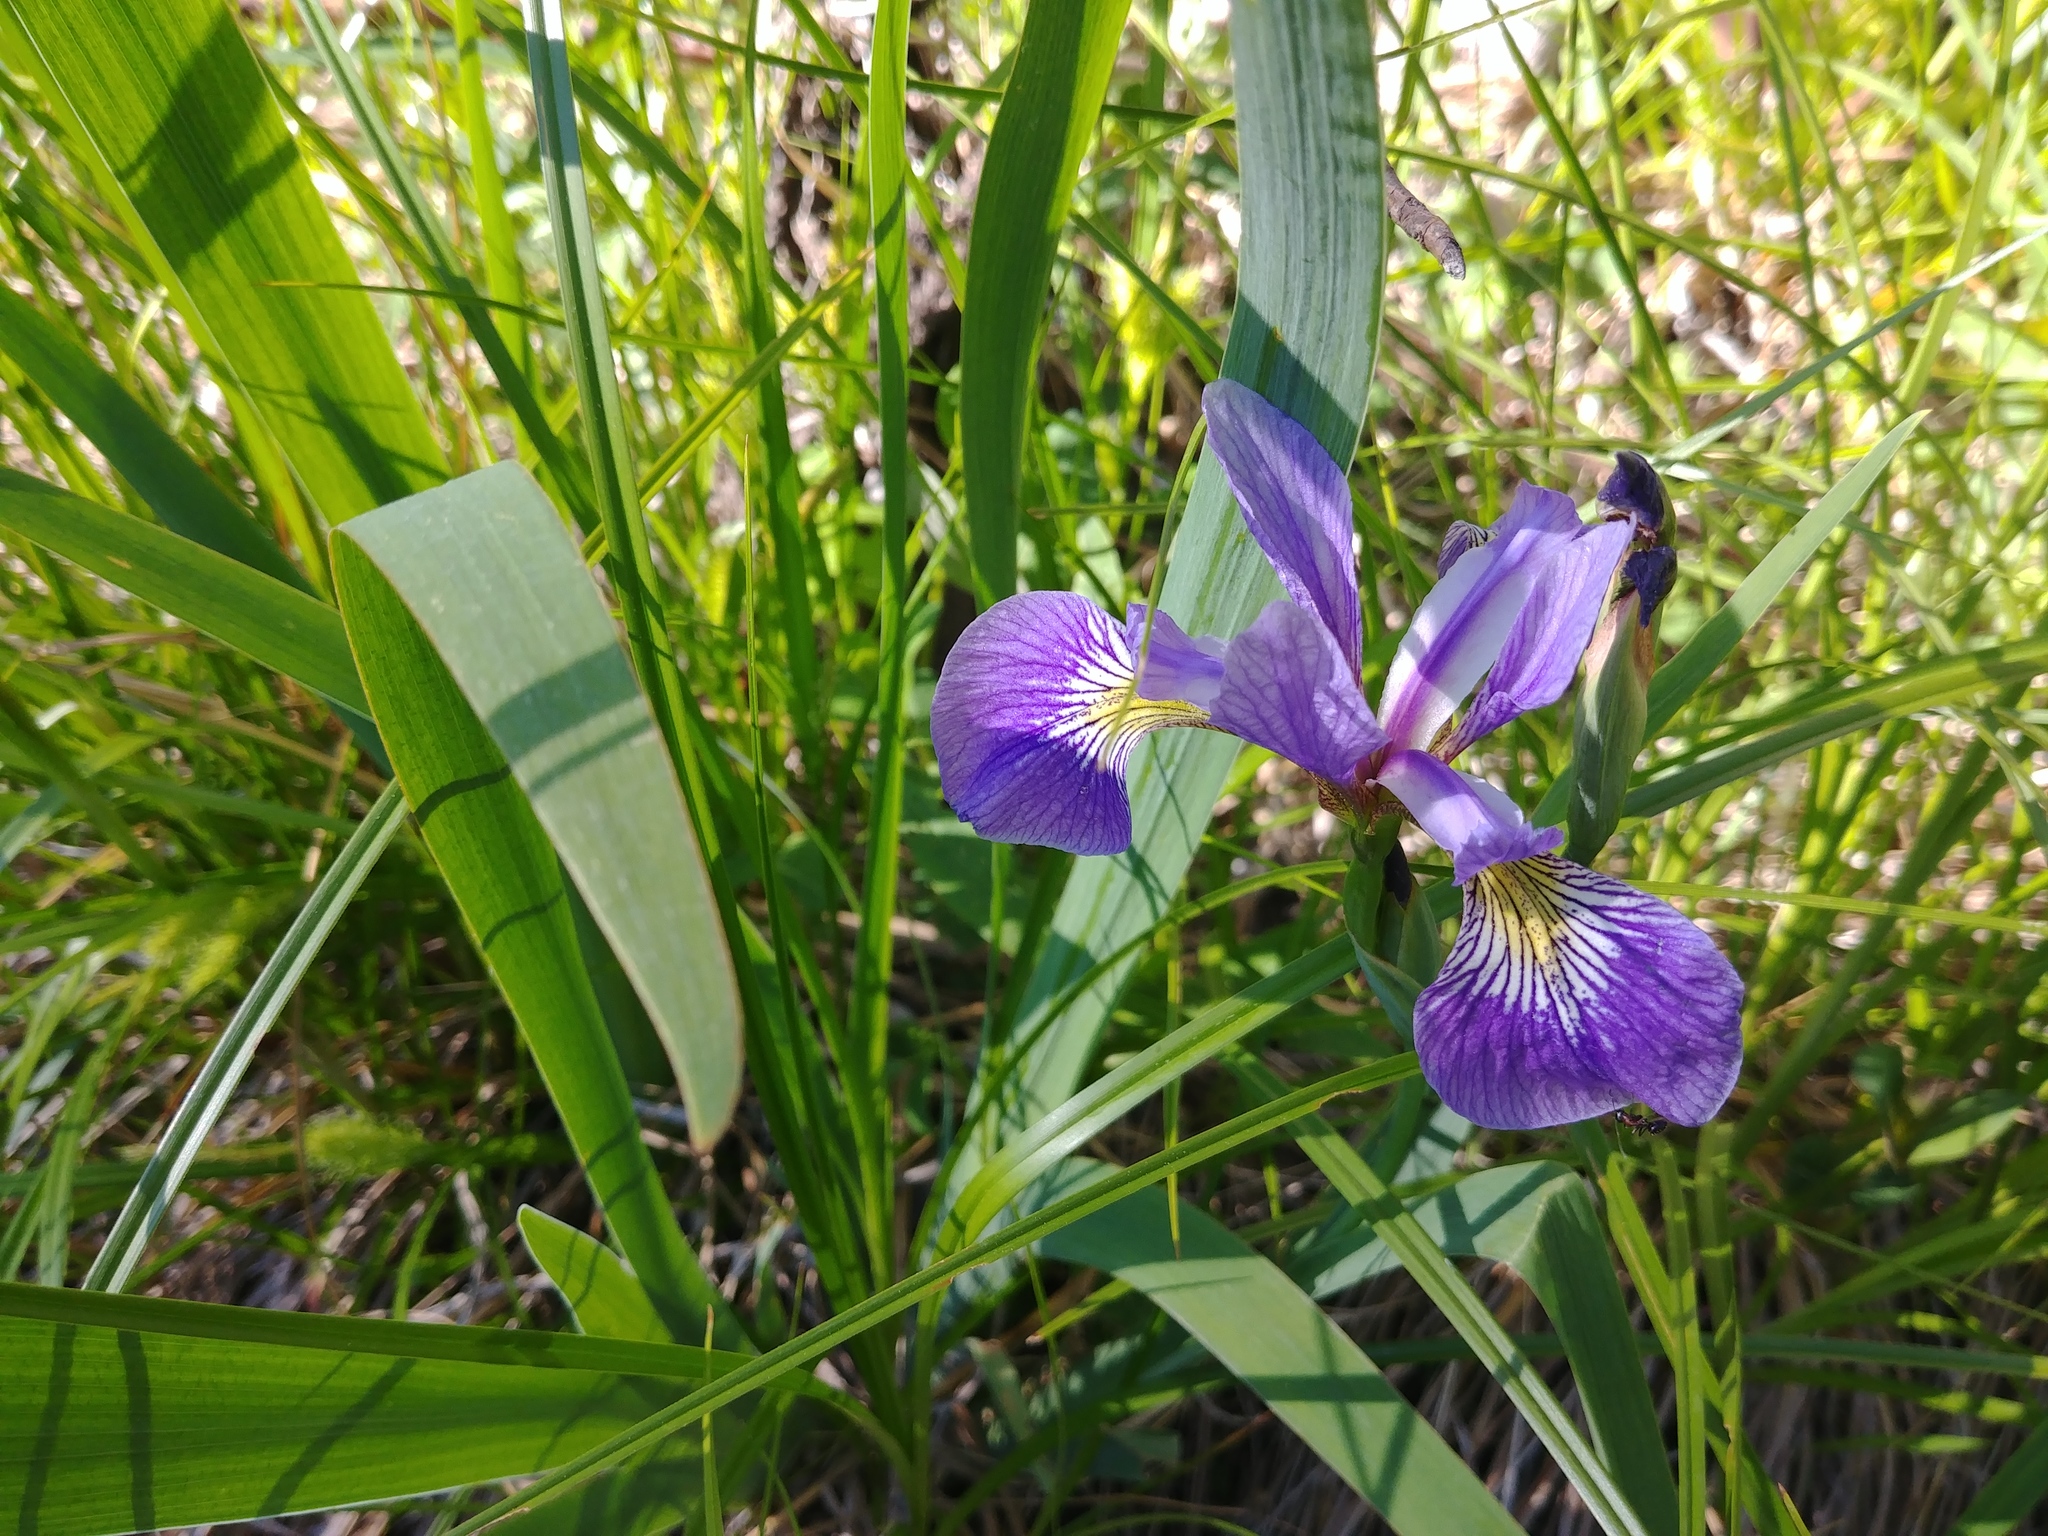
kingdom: Plantae
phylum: Tracheophyta
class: Liliopsida
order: Asparagales
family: Iridaceae
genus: Iris
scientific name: Iris versicolor
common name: Purple iris
